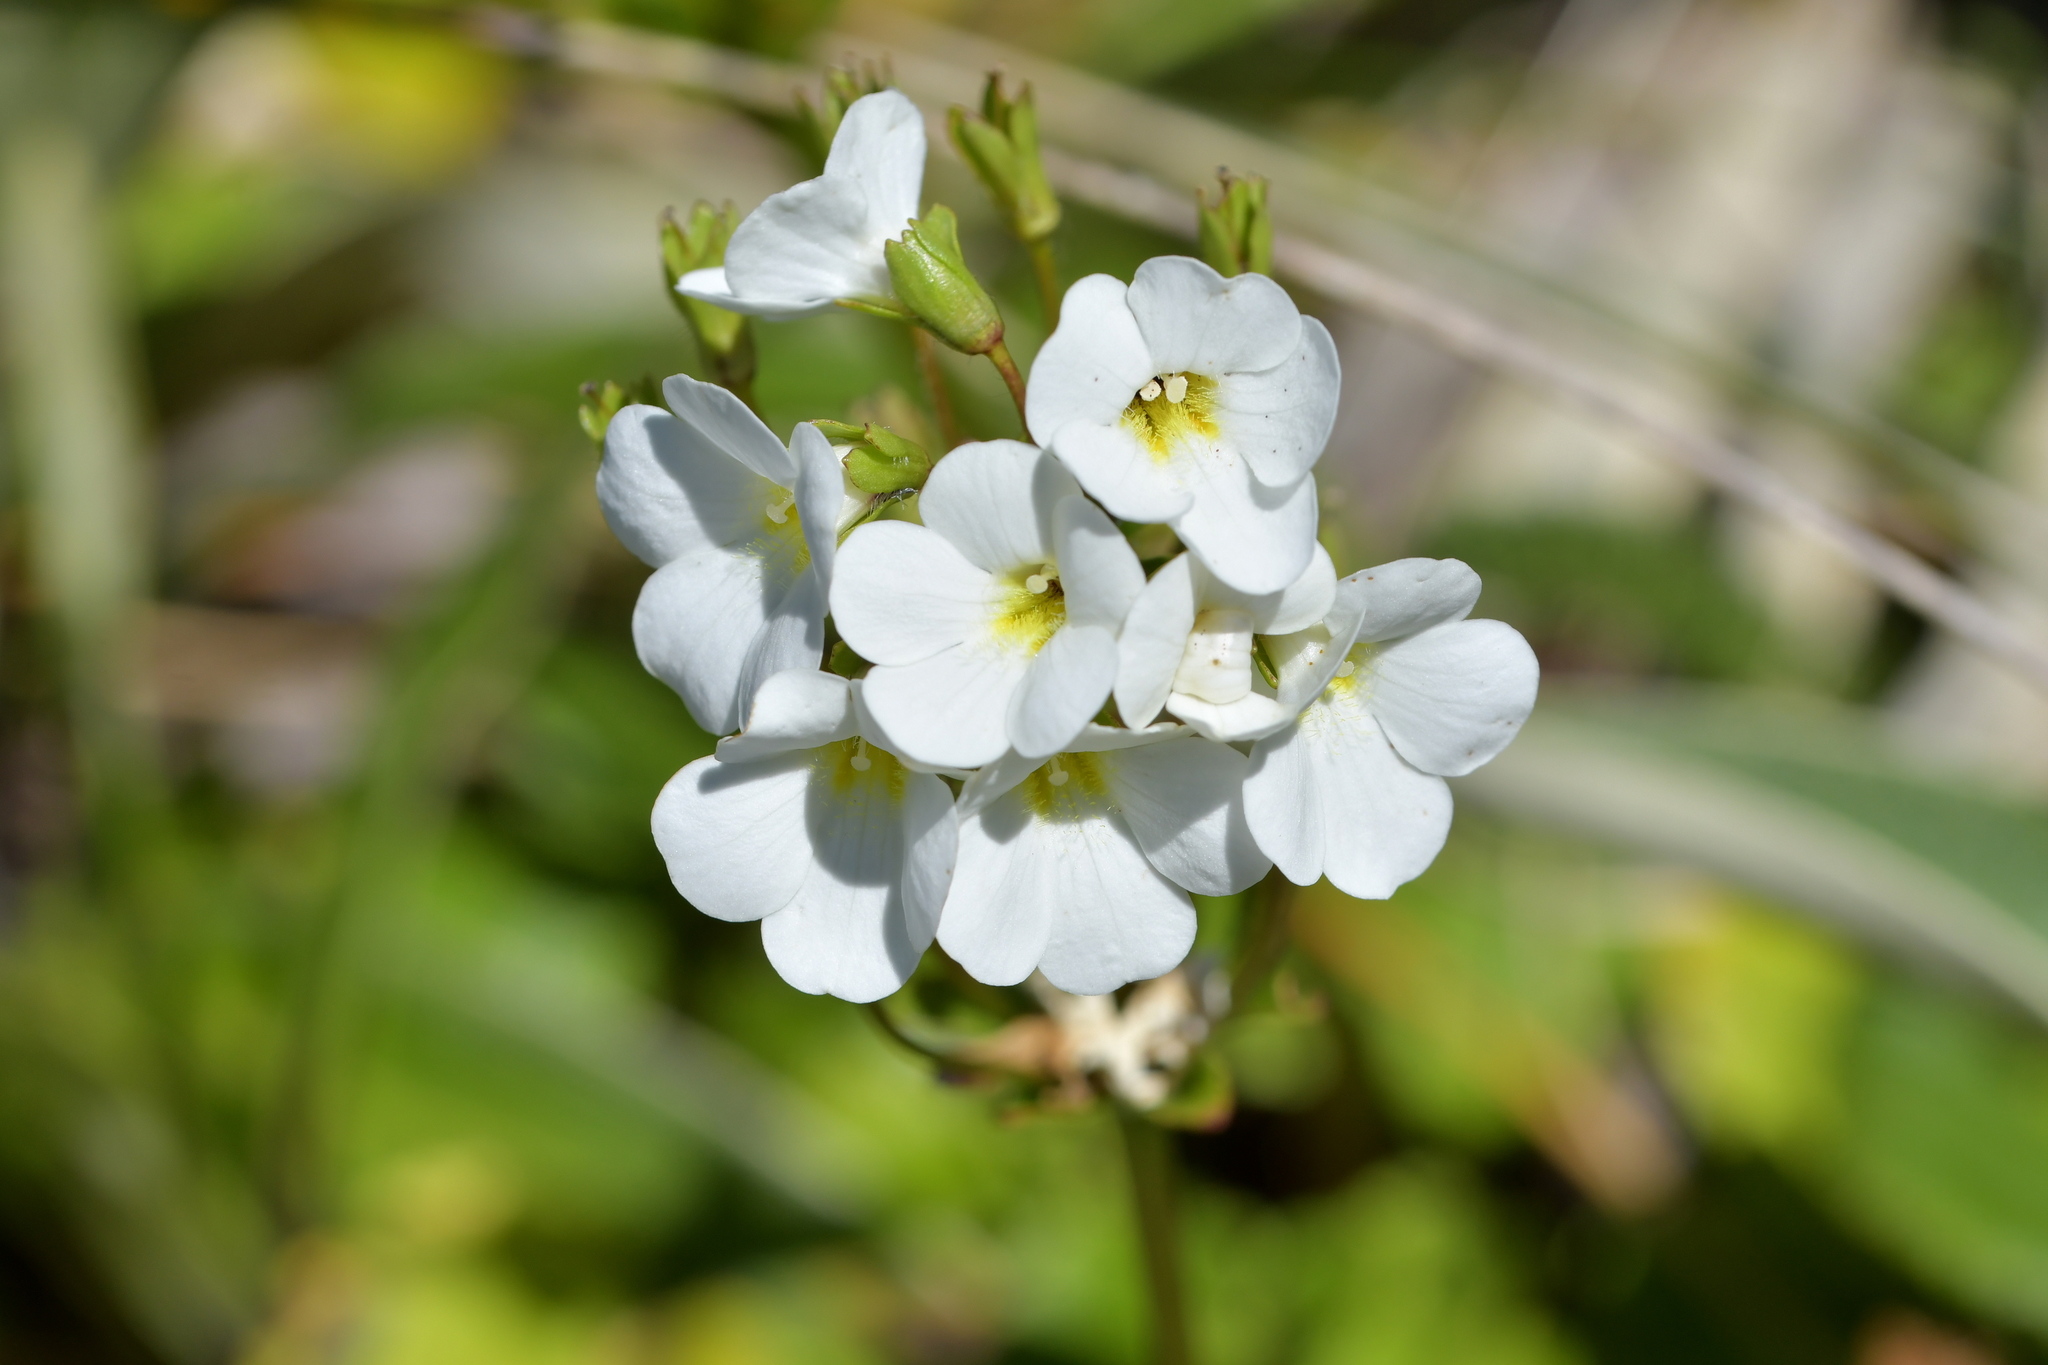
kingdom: Plantae
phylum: Tracheophyta
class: Magnoliopsida
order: Lamiales
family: Plantaginaceae
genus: Ourisia
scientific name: Ourisia macrocarpa
